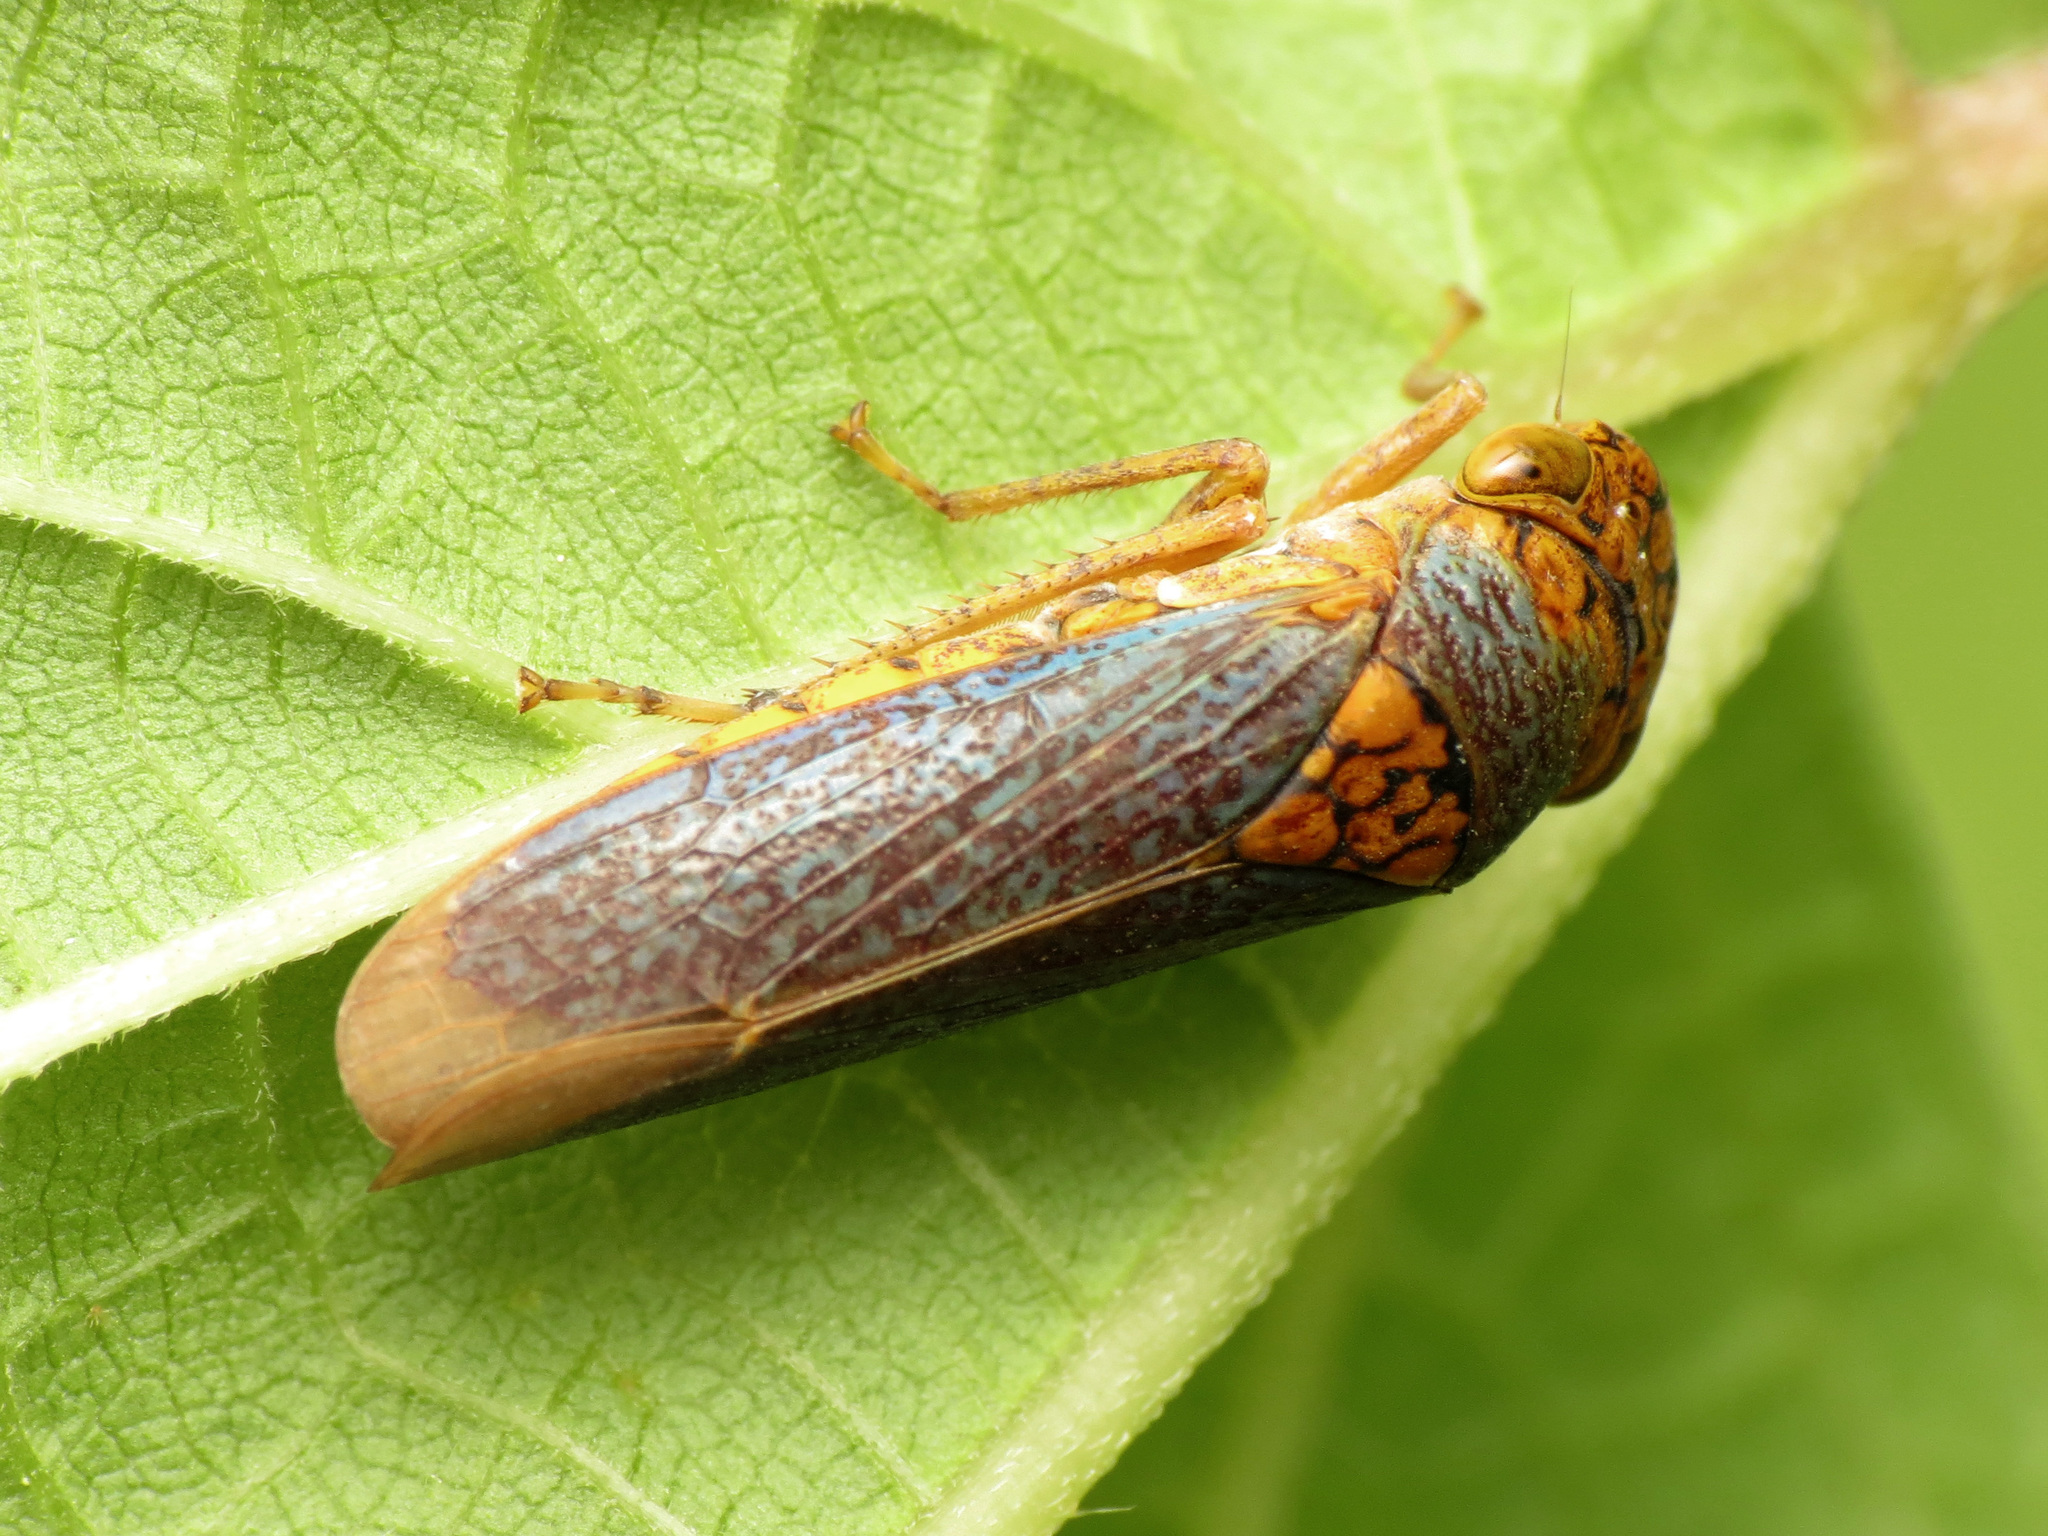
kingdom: Animalia
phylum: Arthropoda
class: Insecta
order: Hemiptera
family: Cicadellidae
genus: Oncometopia
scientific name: Oncometopia orbona
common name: Broad-headed sharpshooter
